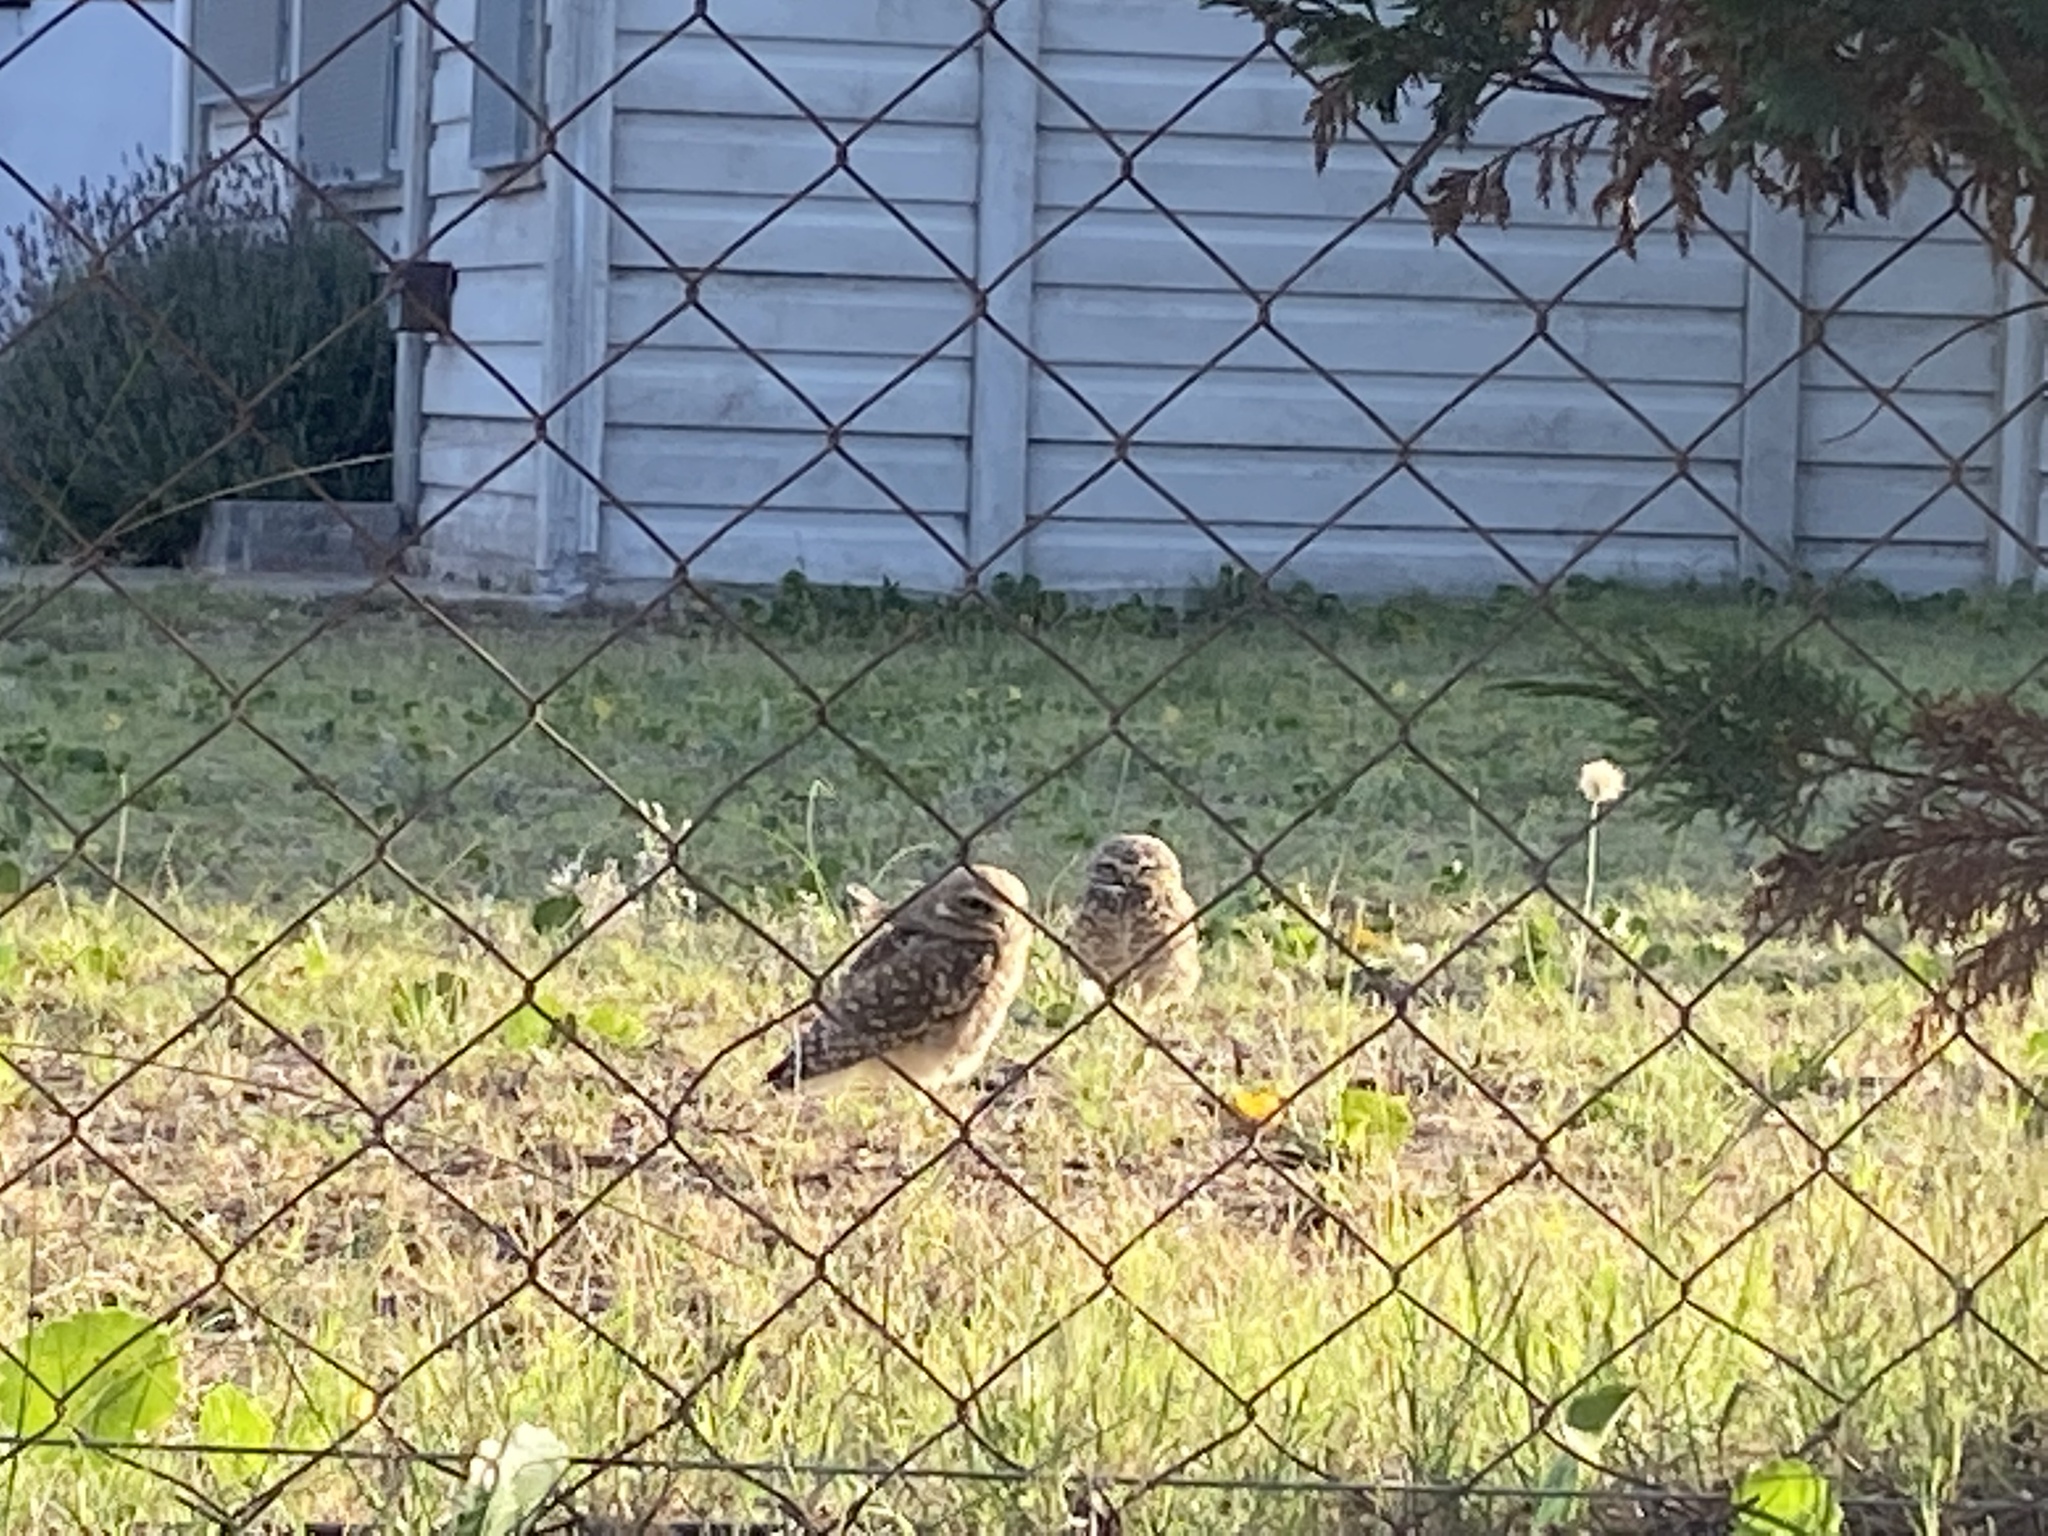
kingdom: Animalia
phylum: Chordata
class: Aves
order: Strigiformes
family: Strigidae
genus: Athene
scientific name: Athene cunicularia
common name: Burrowing owl
